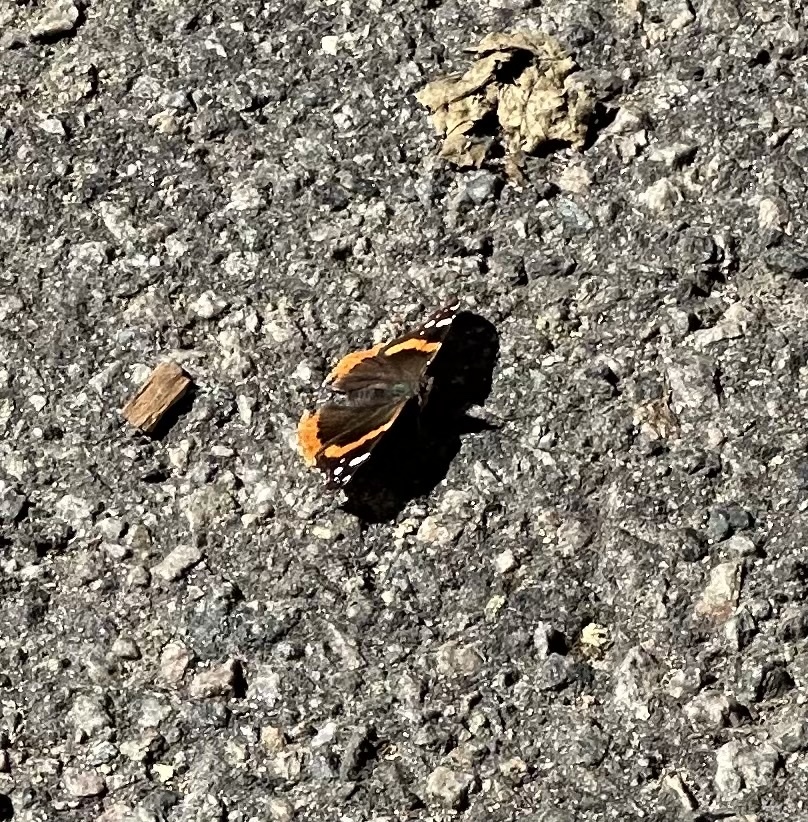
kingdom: Animalia
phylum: Arthropoda
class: Insecta
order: Lepidoptera
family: Nymphalidae
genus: Vanessa
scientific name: Vanessa atalanta
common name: Red admiral
